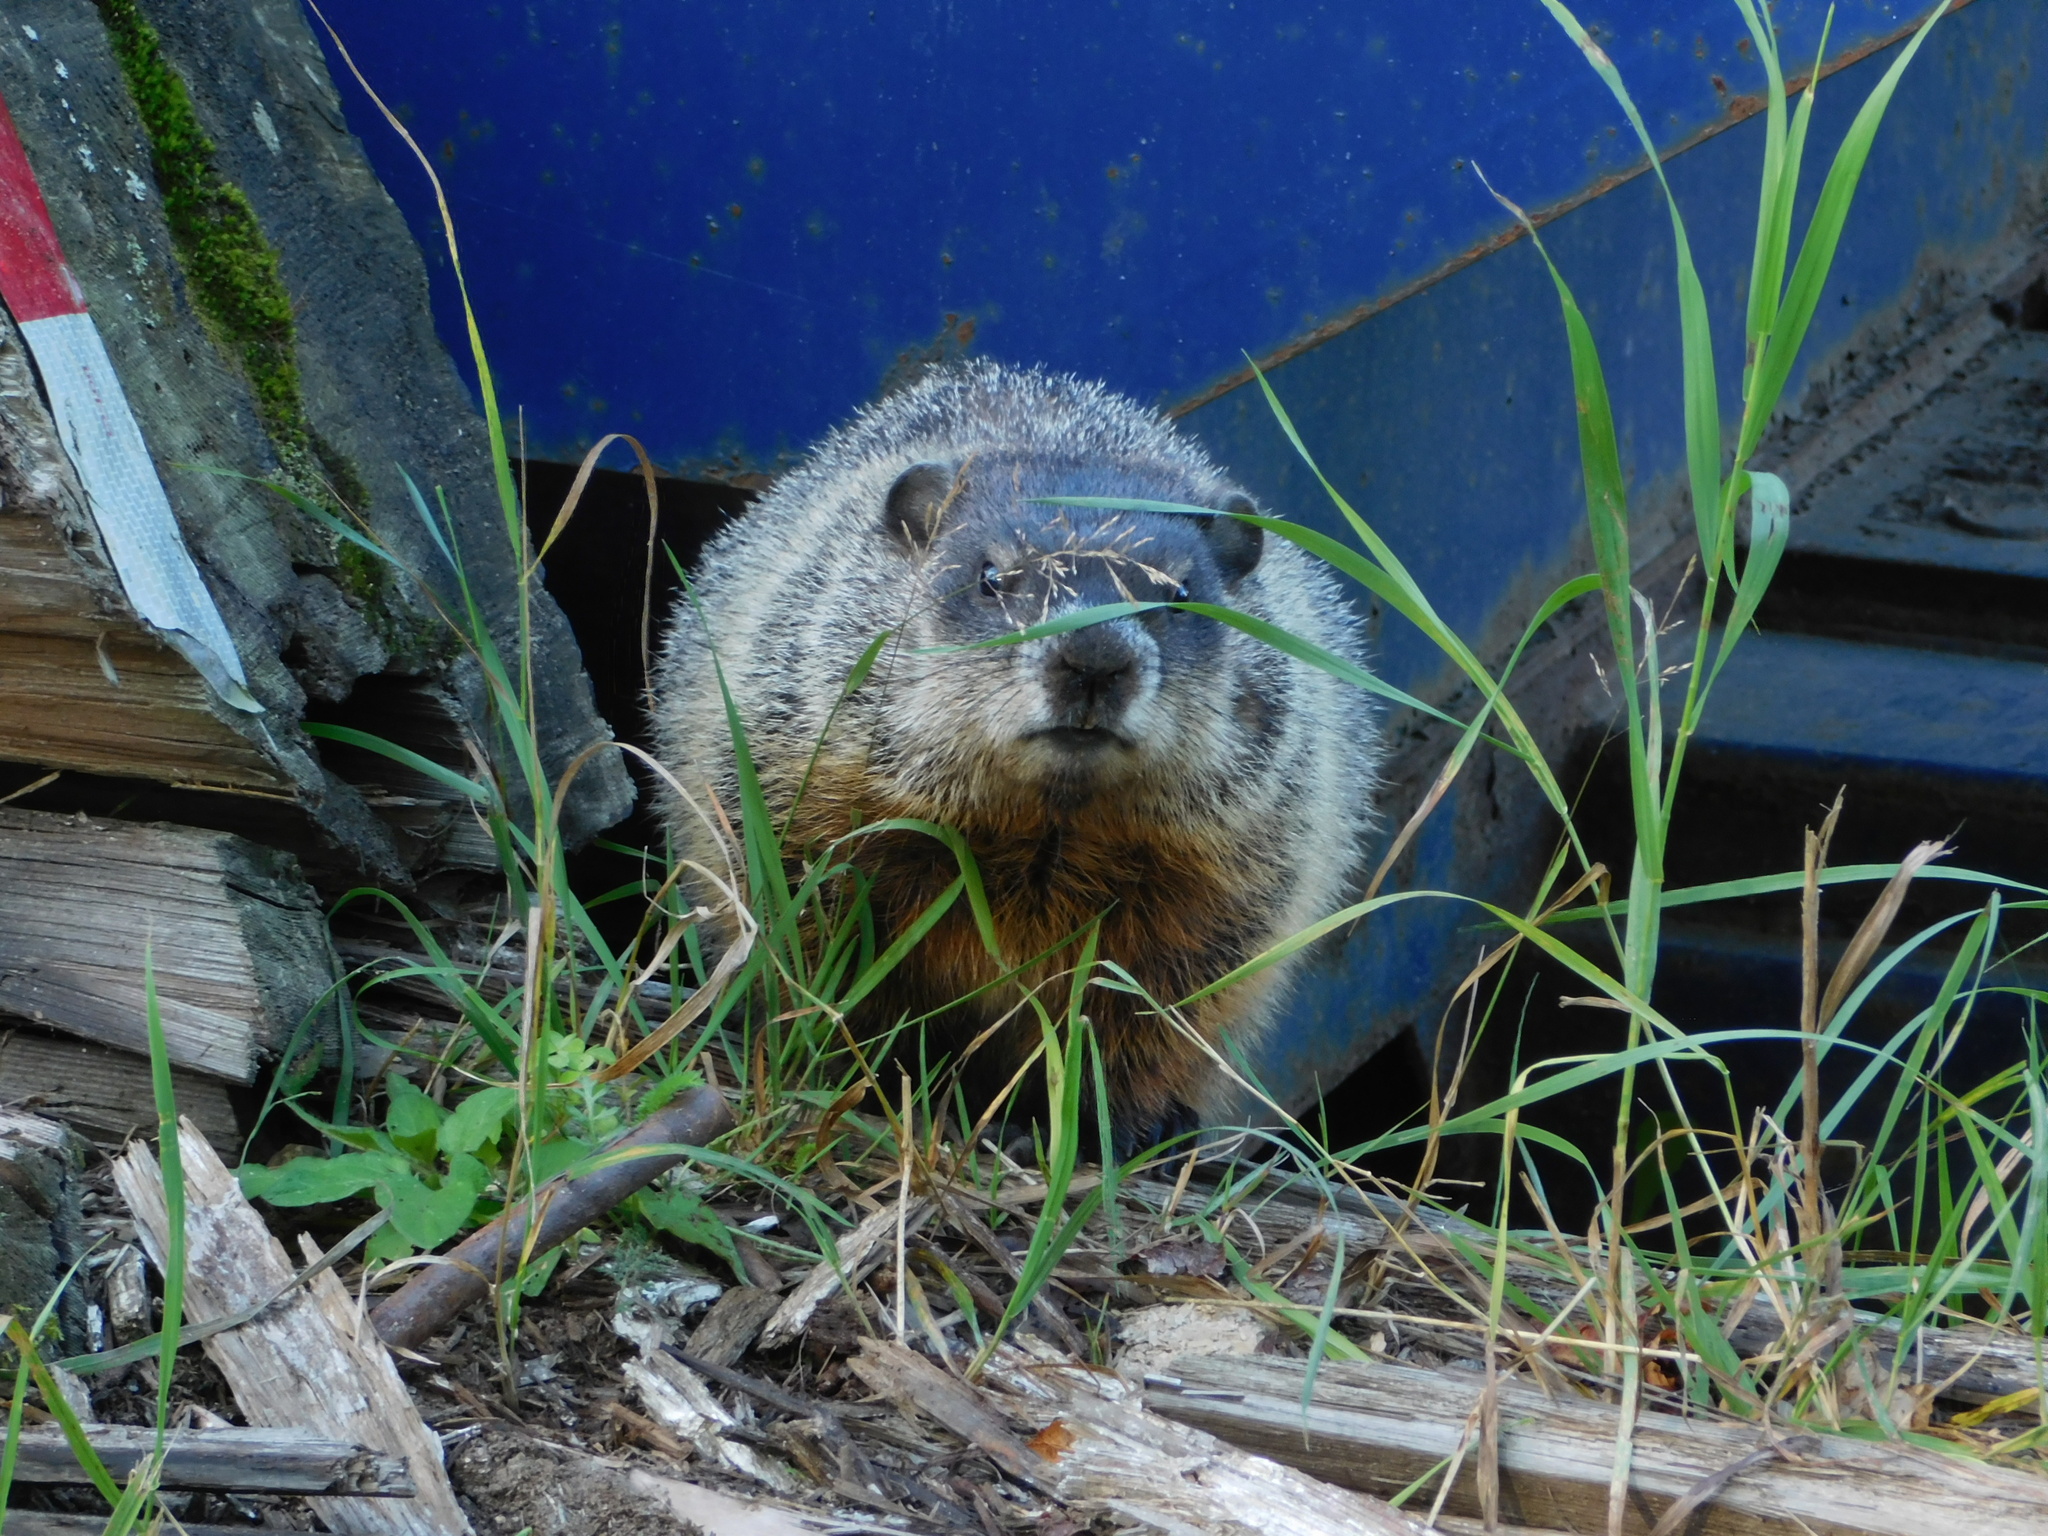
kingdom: Animalia
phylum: Chordata
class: Mammalia
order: Rodentia
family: Sciuridae
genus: Marmota
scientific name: Marmota monax
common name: Groundhog
